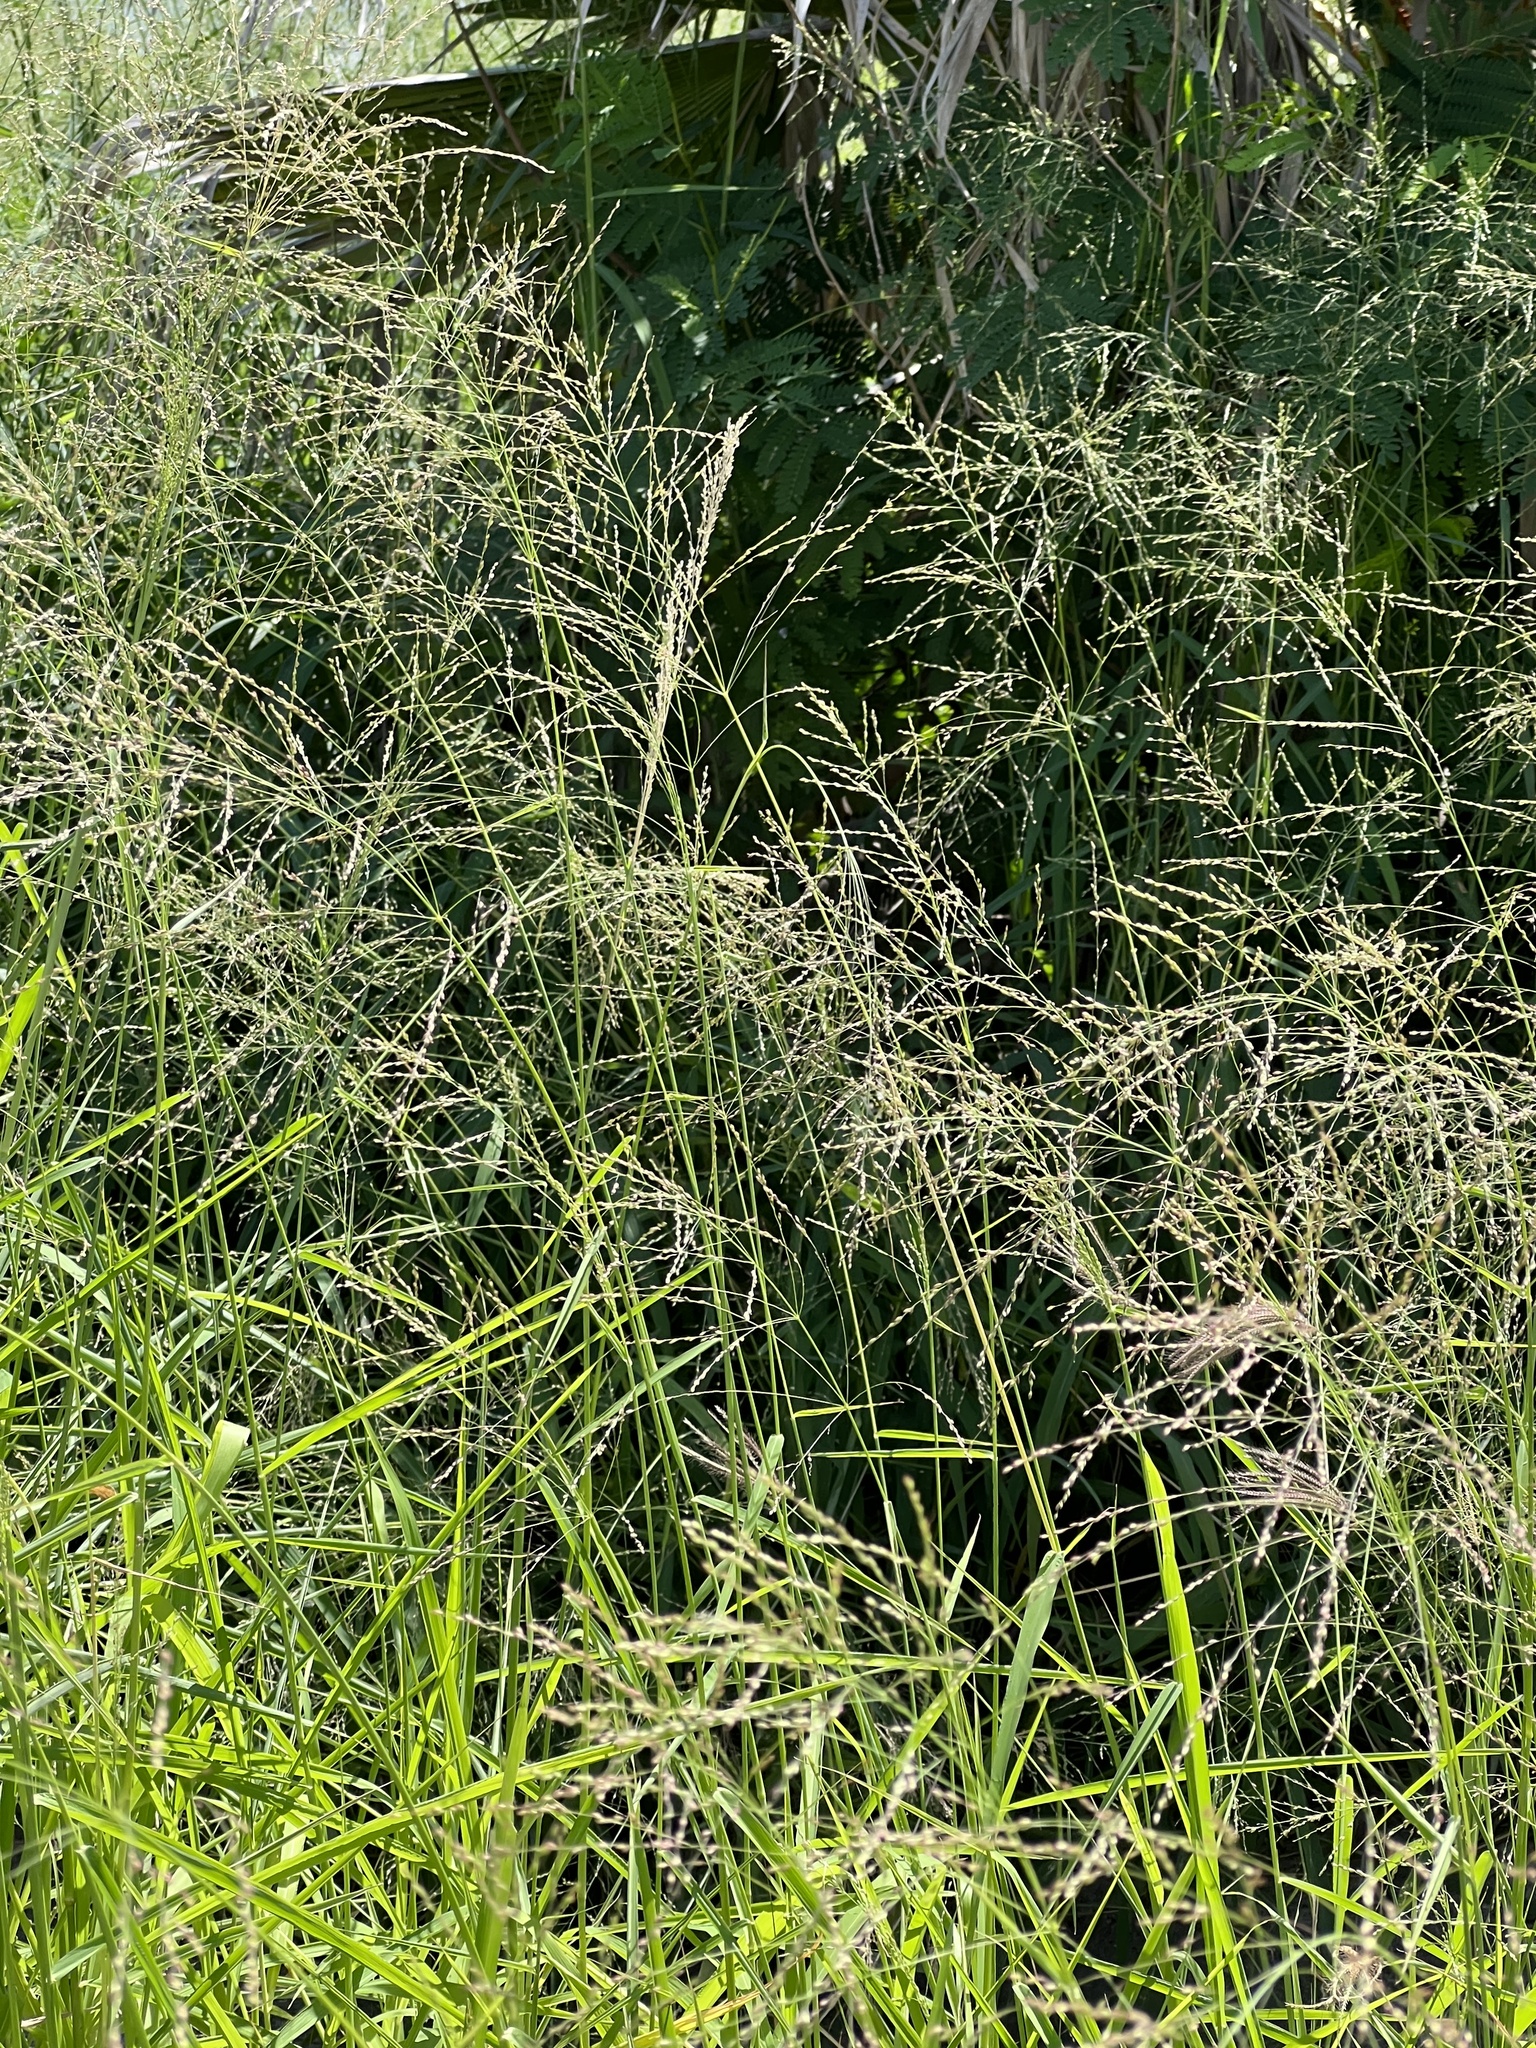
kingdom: Plantae
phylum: Tracheophyta
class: Liliopsida
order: Poales
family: Poaceae
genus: Megathyrsus
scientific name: Megathyrsus maximus
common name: Guineagrass
